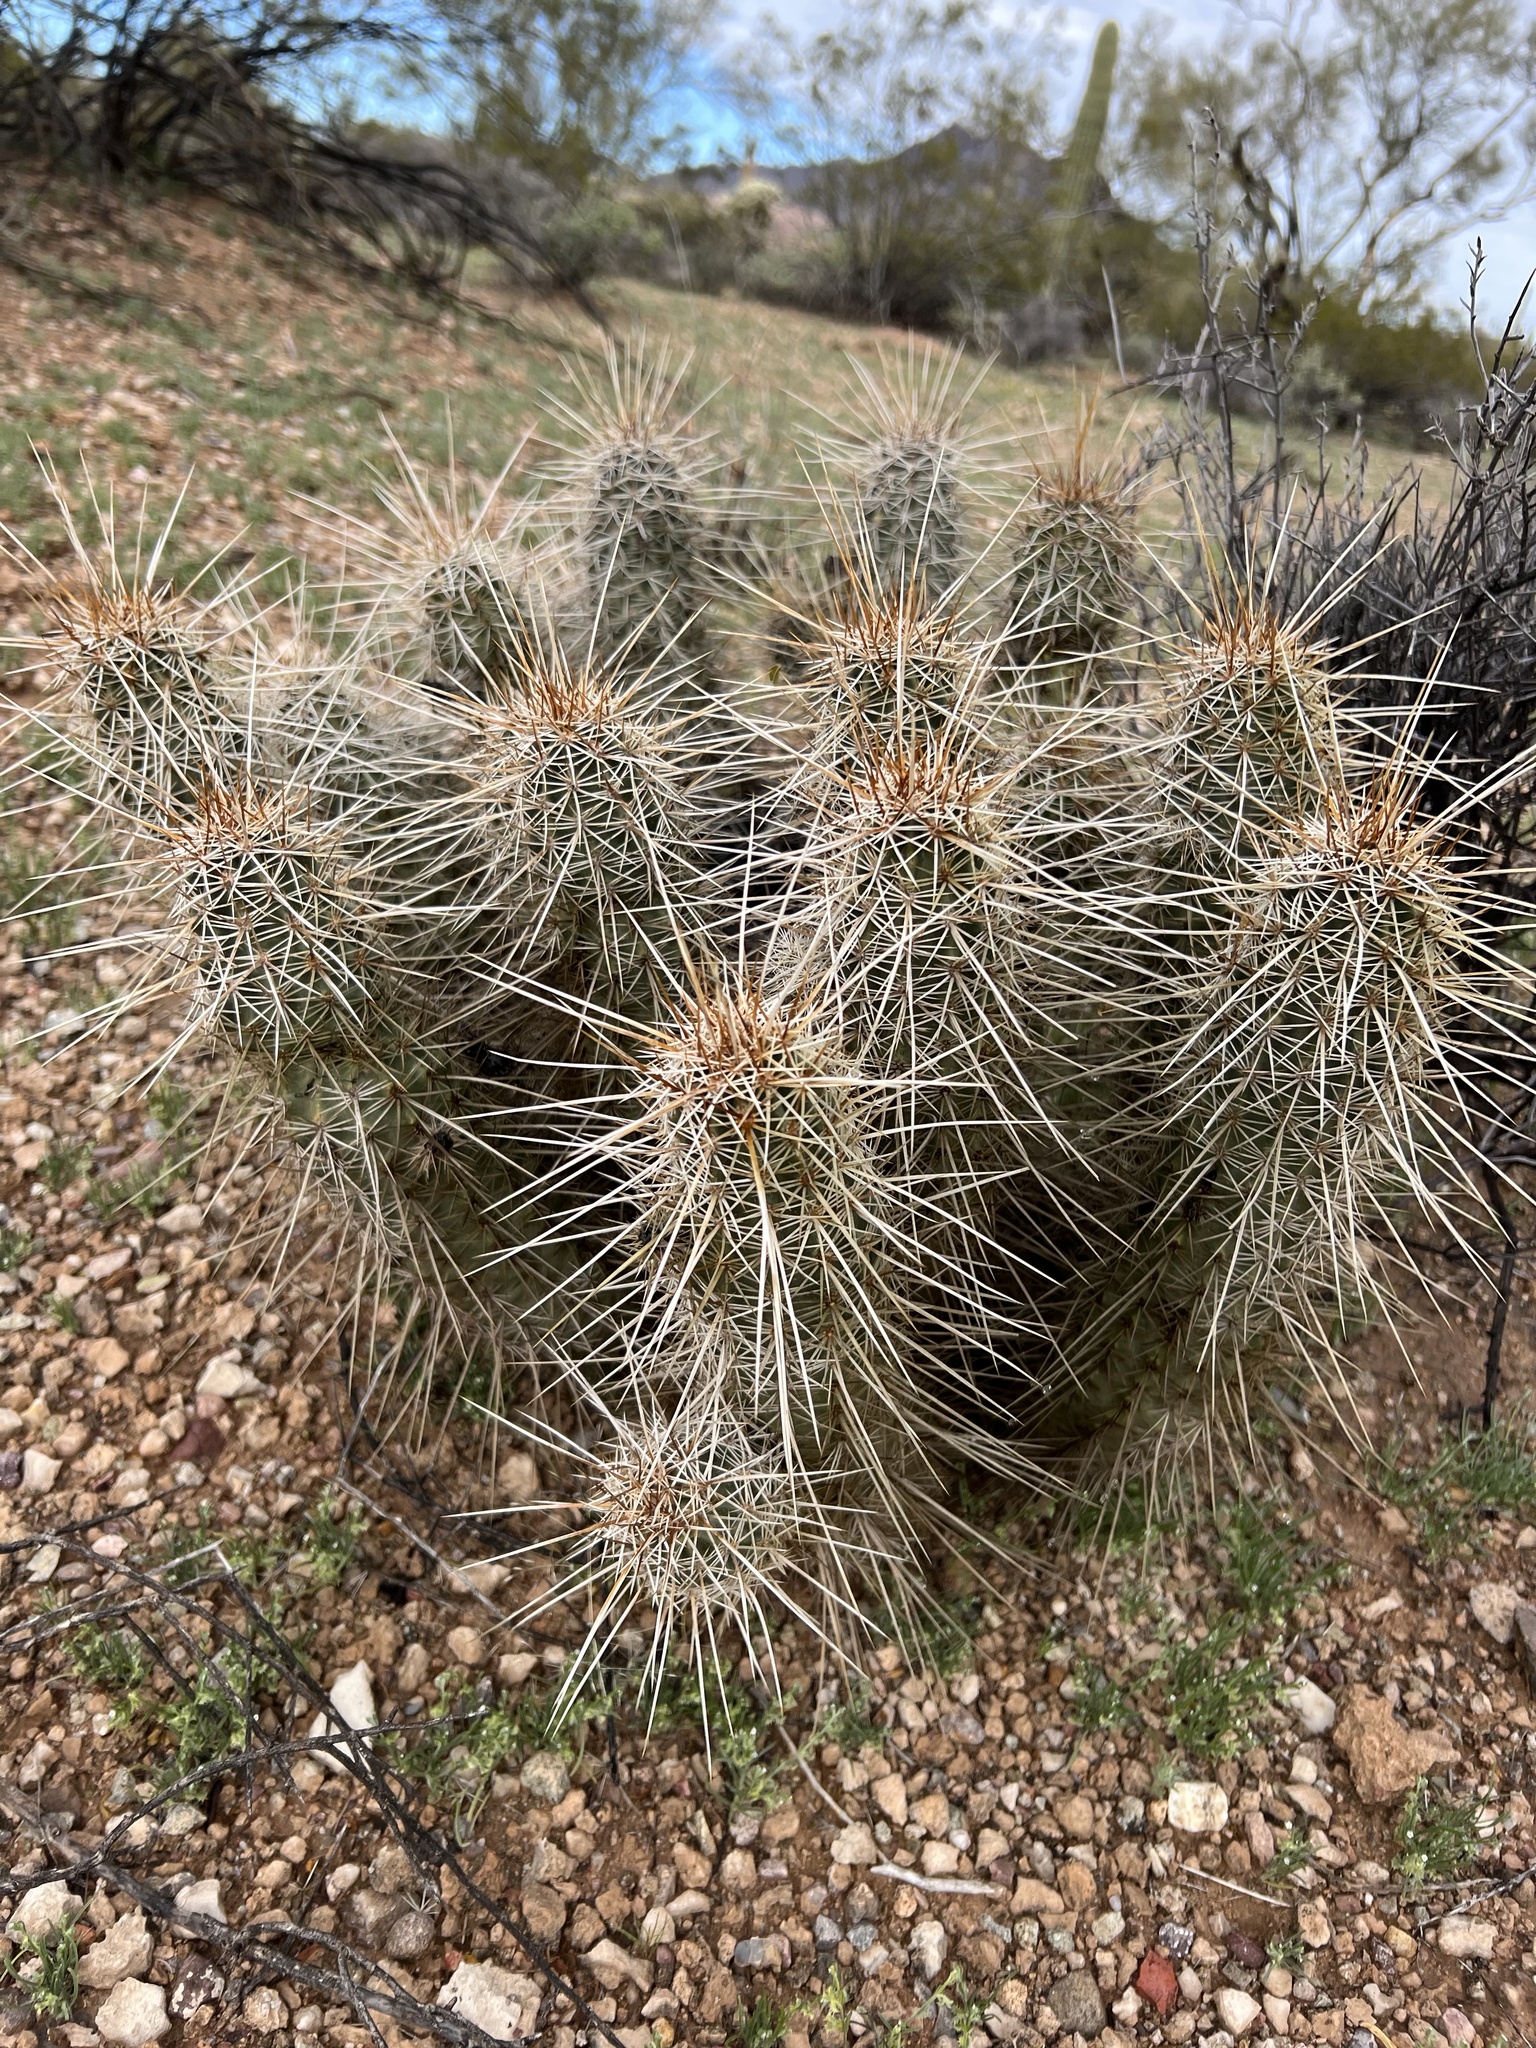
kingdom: Plantae
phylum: Tracheophyta
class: Magnoliopsida
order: Caryophyllales
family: Cactaceae
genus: Echinocereus
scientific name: Echinocereus fasciculatus
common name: Bundle hedgehog
